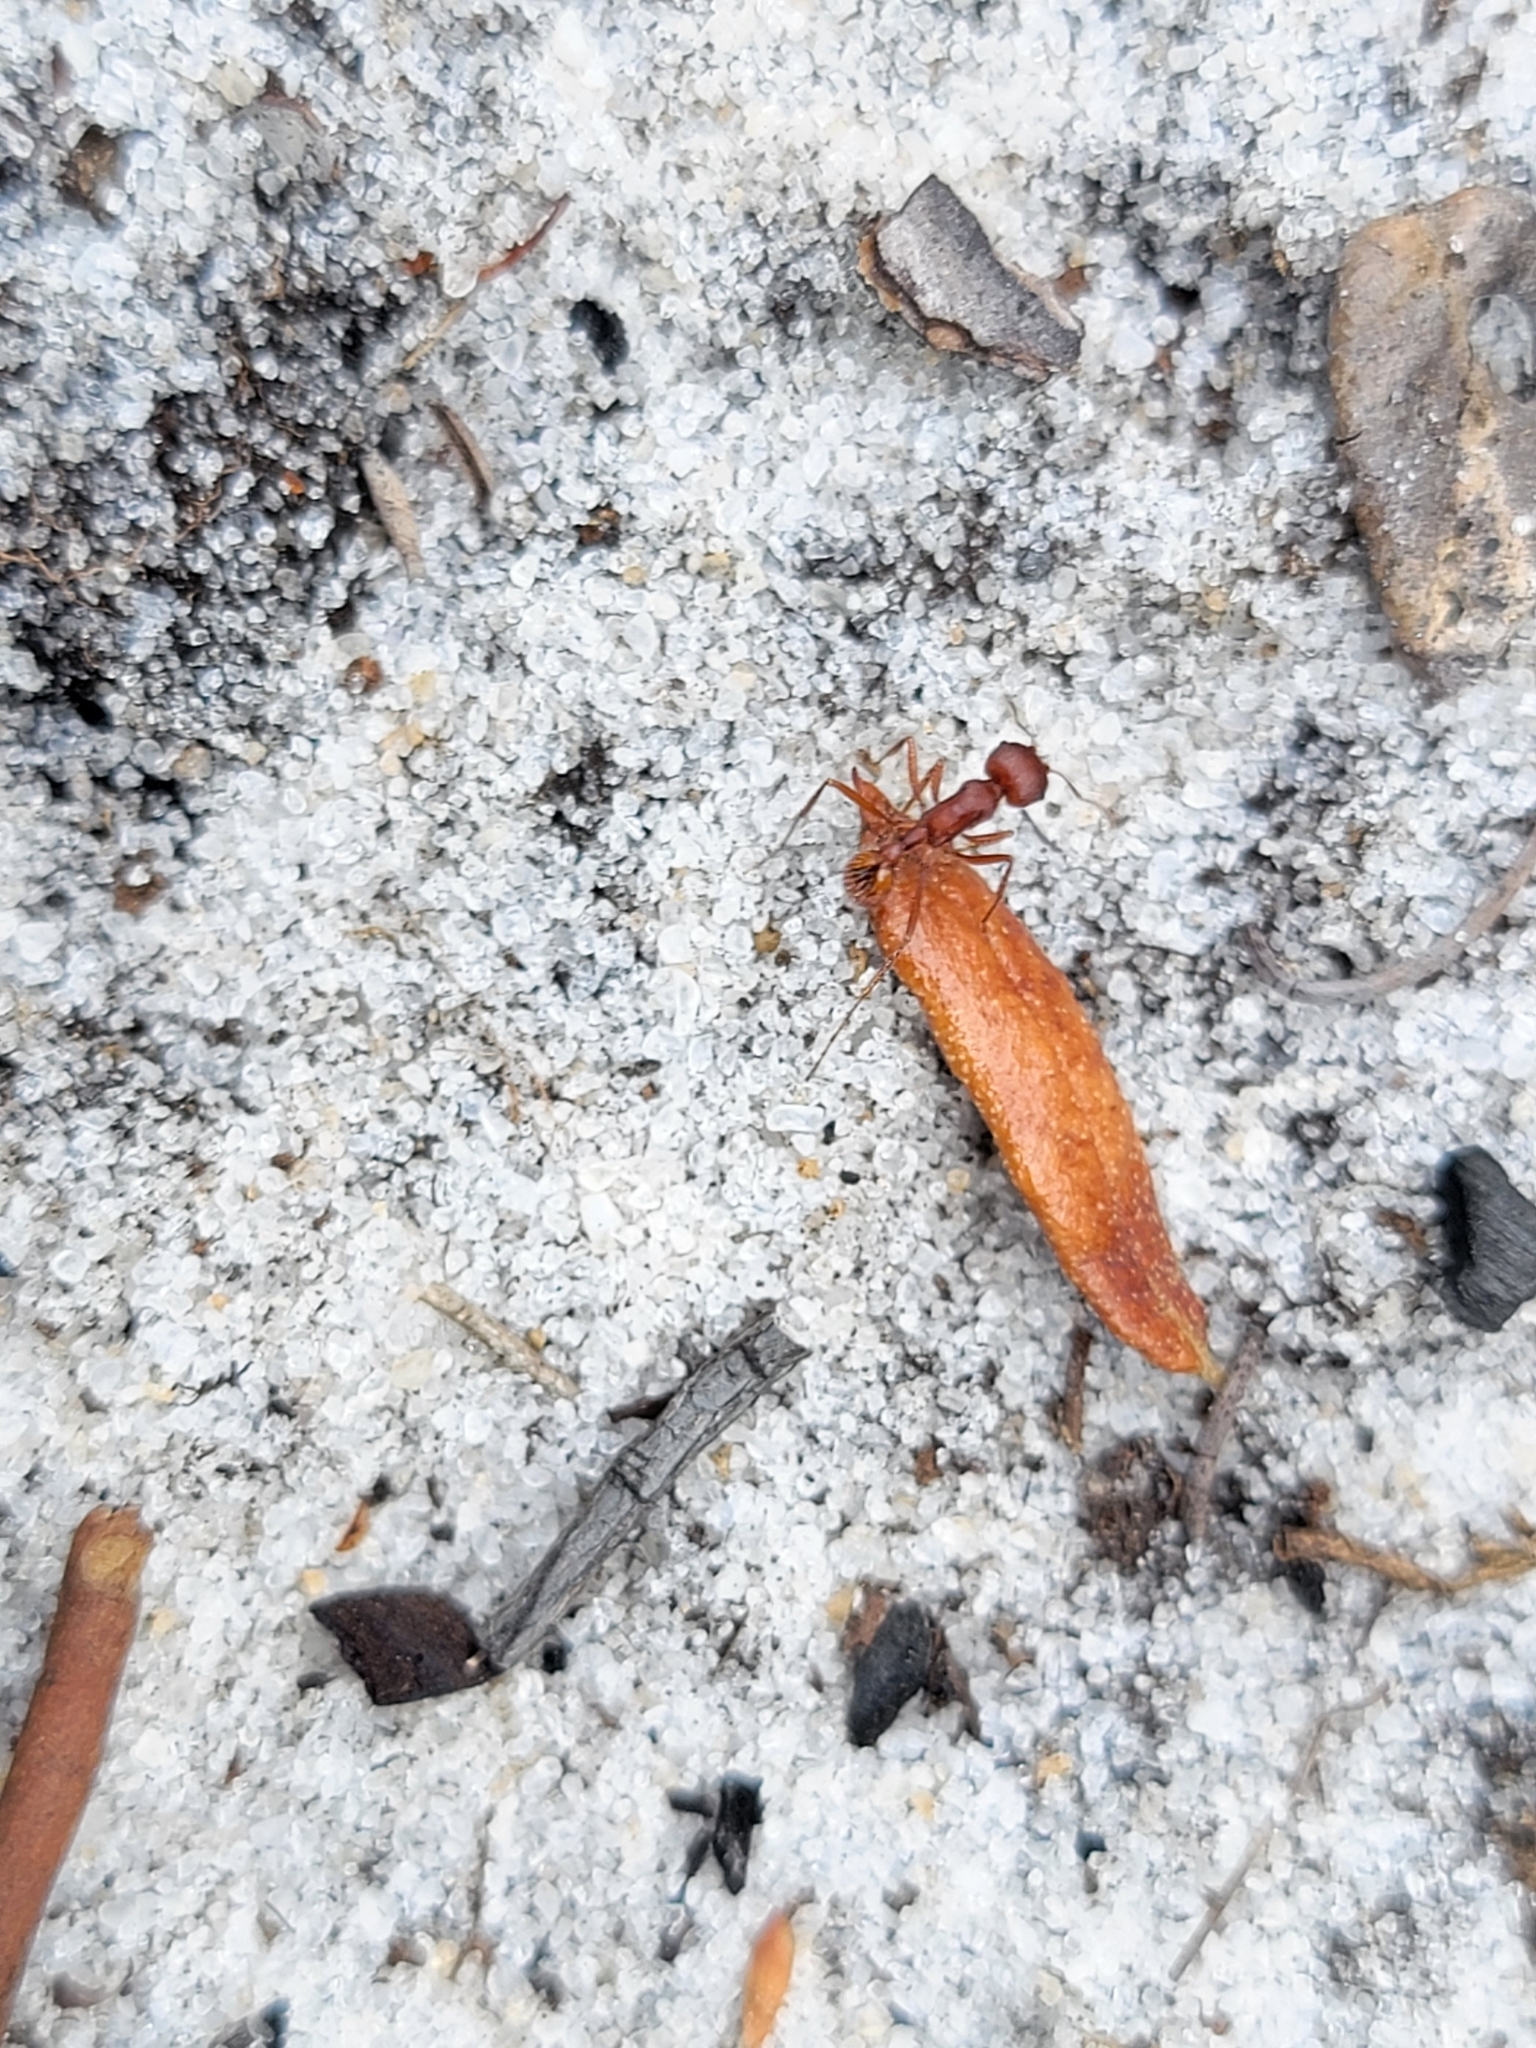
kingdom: Animalia
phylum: Arthropoda
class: Insecta
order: Hymenoptera
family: Formicidae
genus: Pogonomyrmex
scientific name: Pogonomyrmex badius
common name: Florida harvester ant
